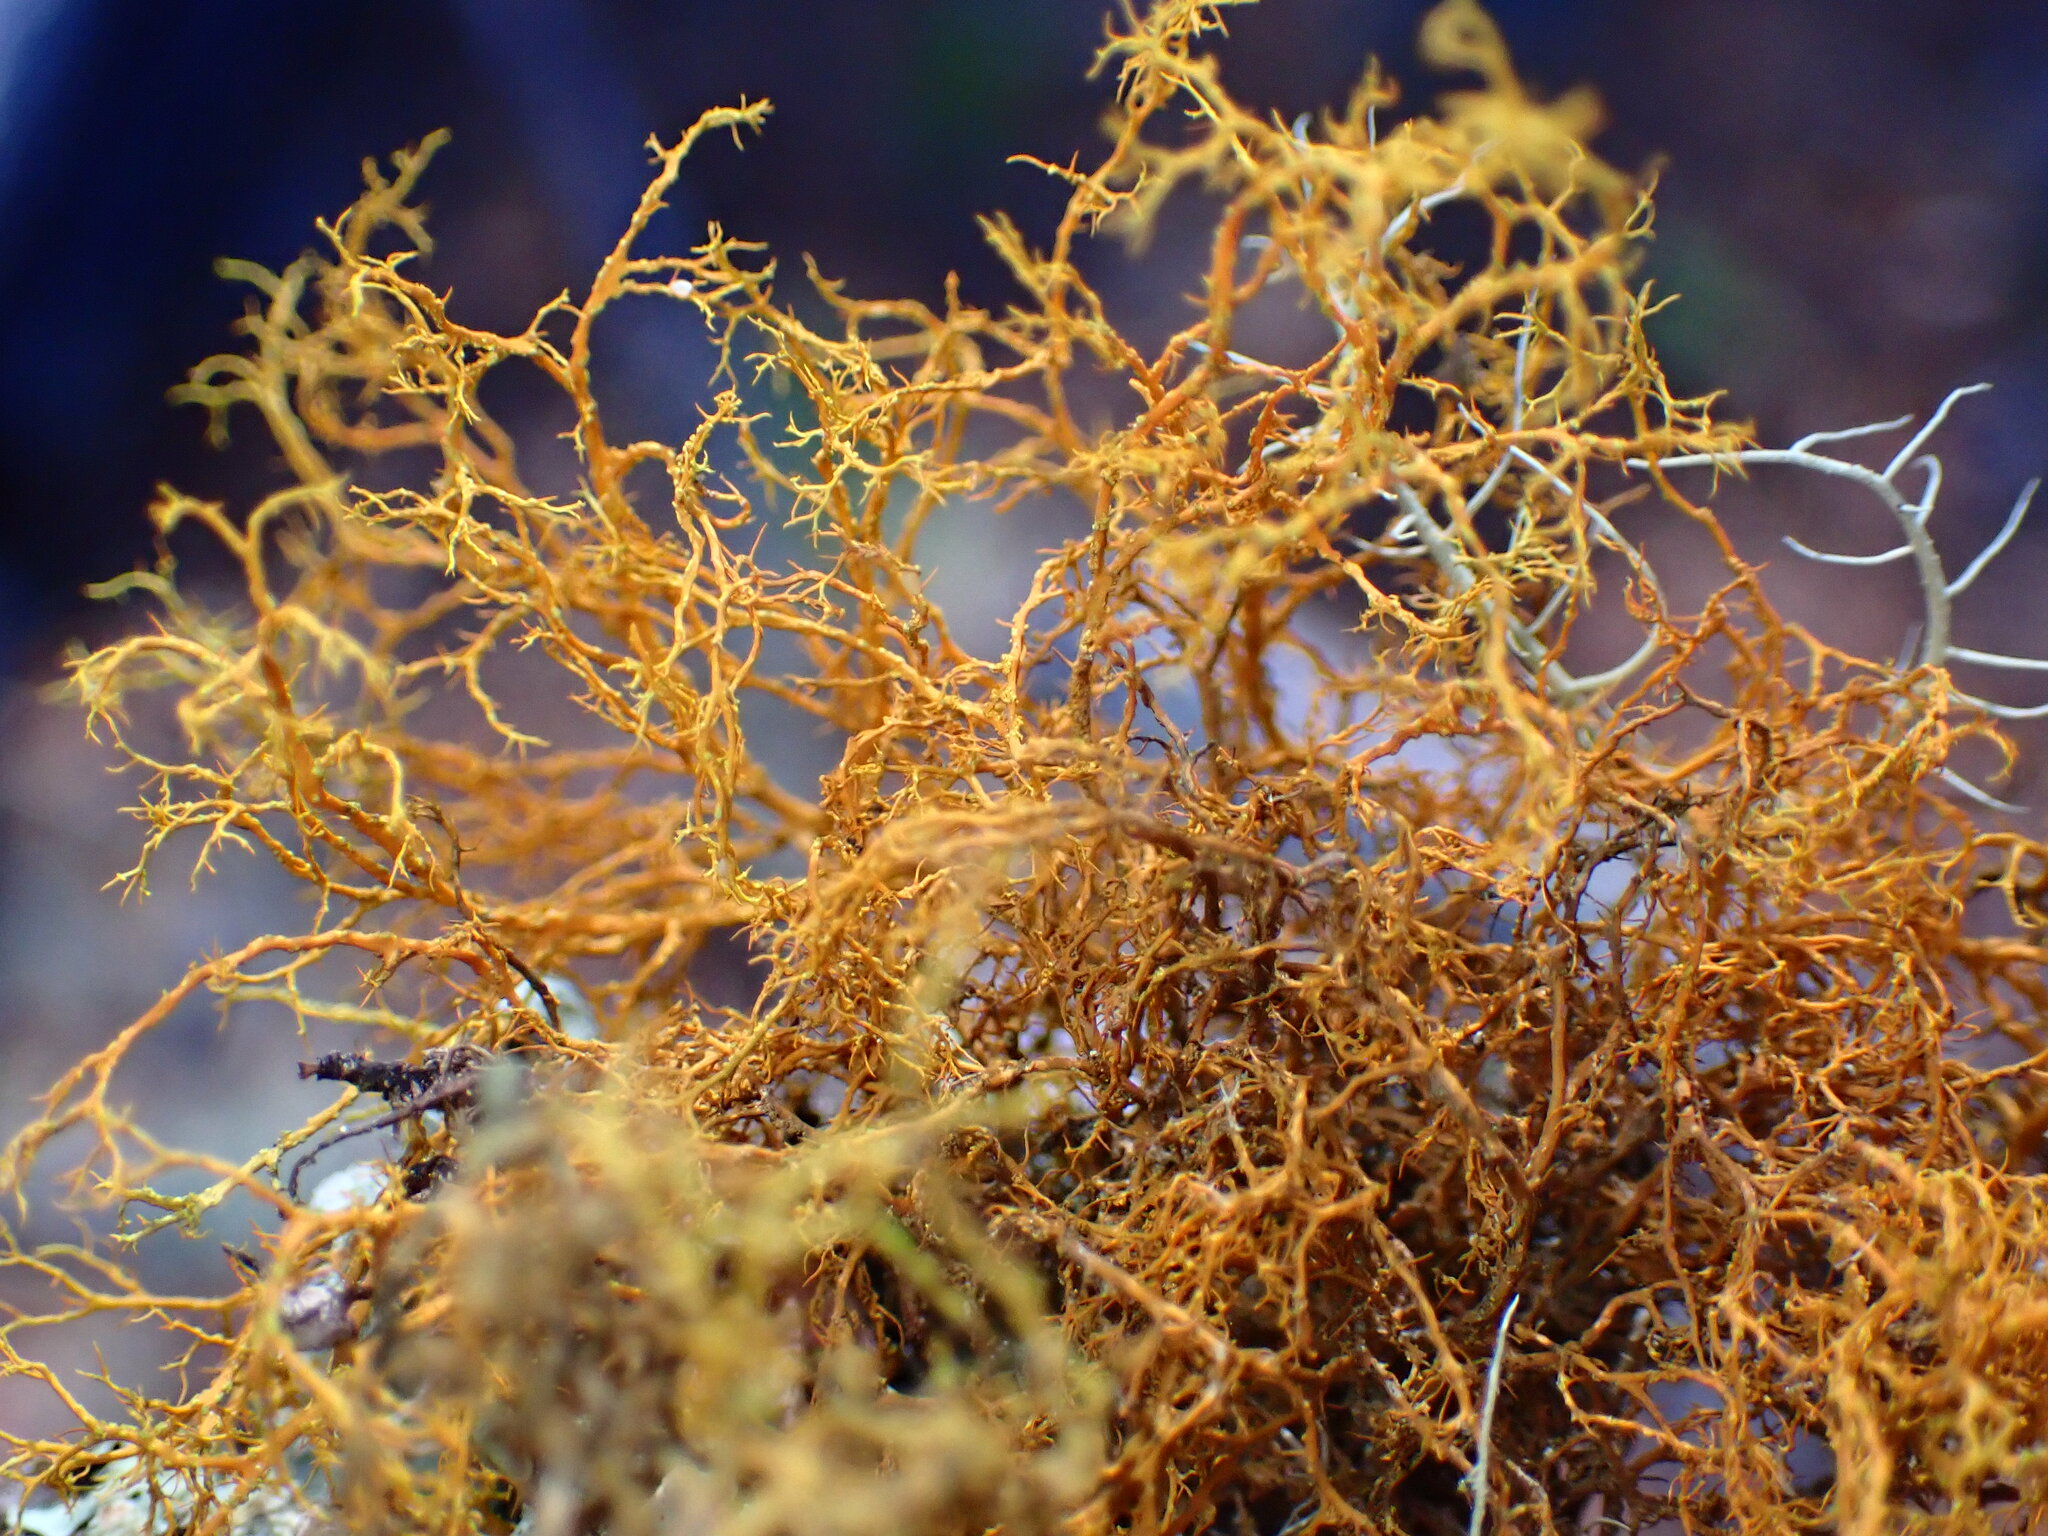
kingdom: Fungi
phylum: Ascomycota
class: Lecanoromycetes
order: Teloschistales
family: Teloschistaceae
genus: Teloschistes
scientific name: Teloschistes flavicans
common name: Golden hair-lichen
